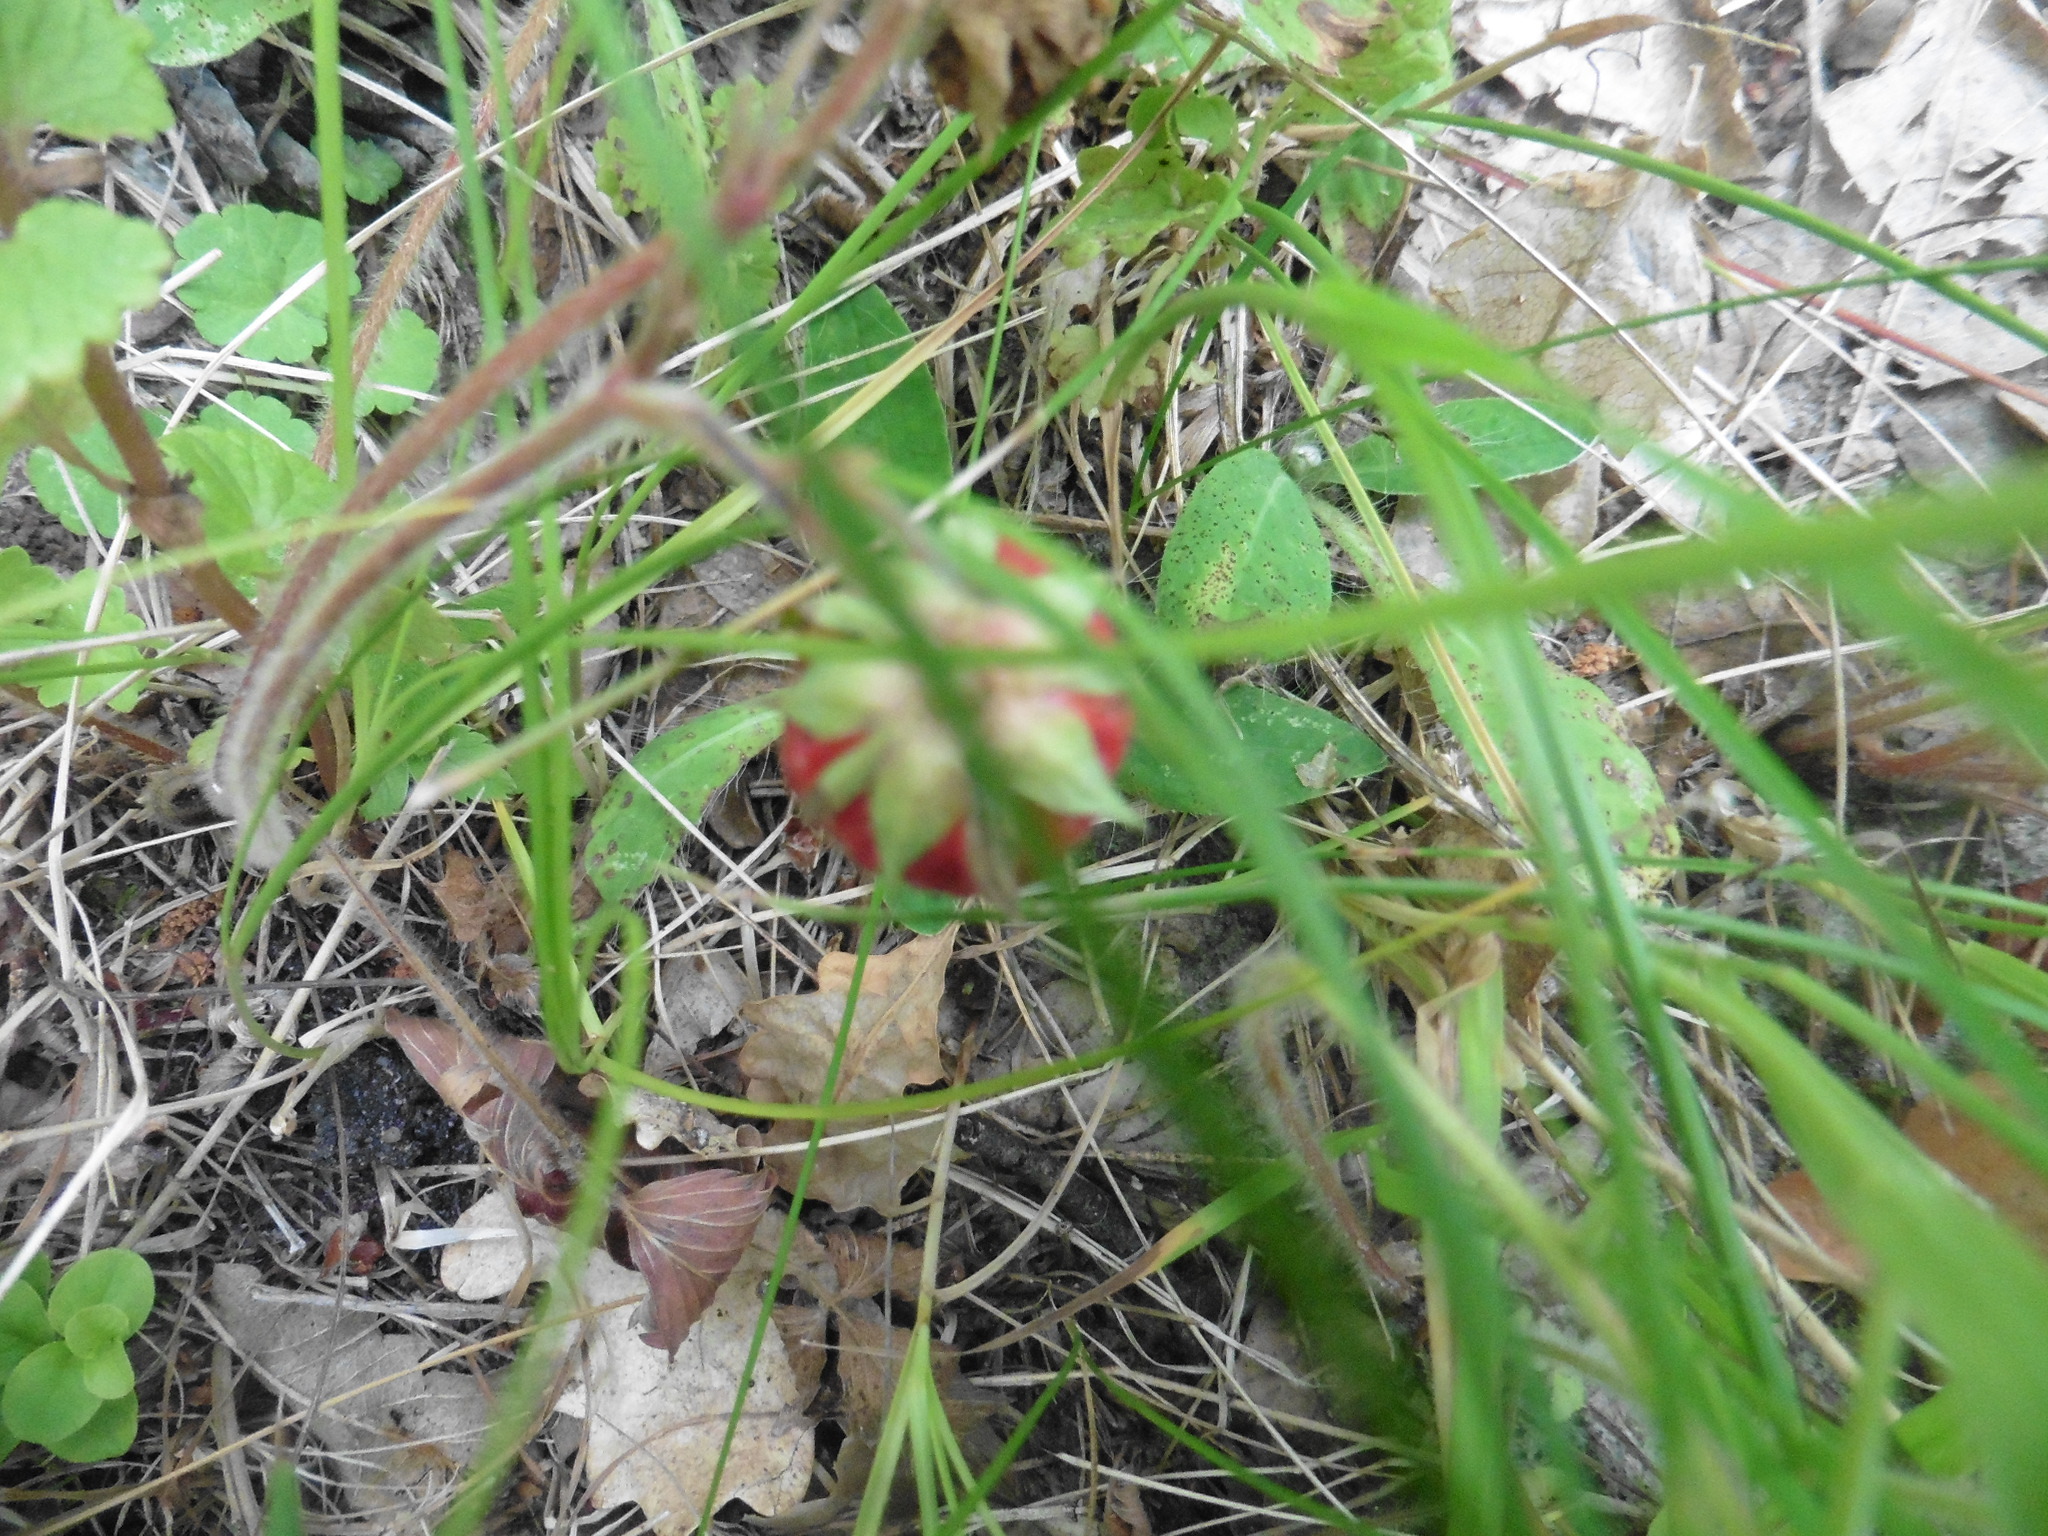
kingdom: Plantae
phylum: Tracheophyta
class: Magnoliopsida
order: Rosales
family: Rosaceae
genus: Fragaria
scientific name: Fragaria viridis
